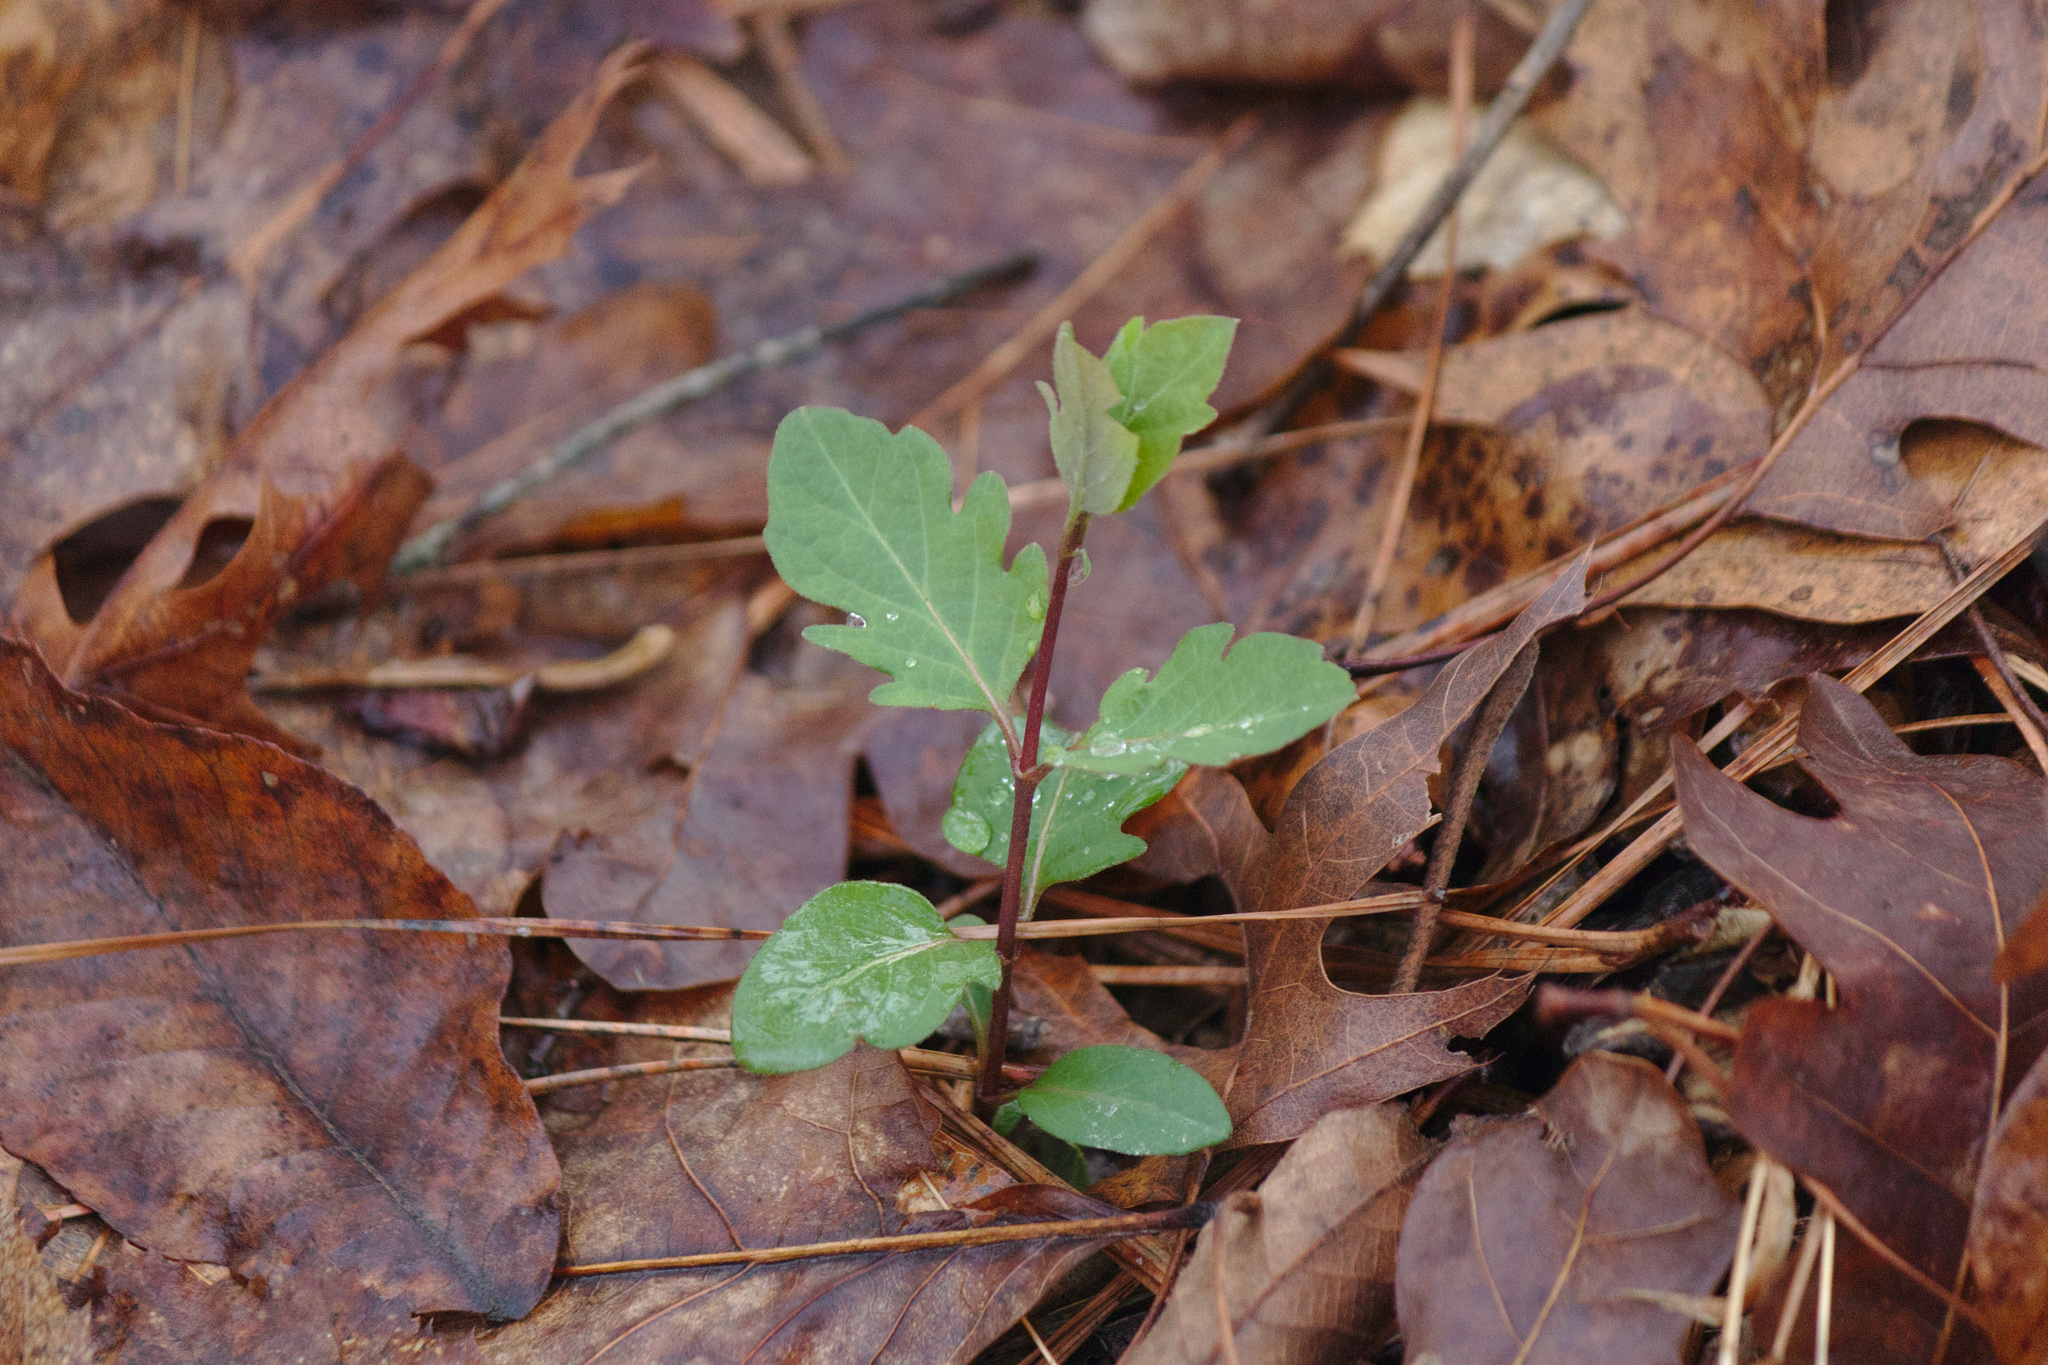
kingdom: Plantae
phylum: Tracheophyta
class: Magnoliopsida
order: Dipsacales
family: Caprifoliaceae
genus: Lonicera
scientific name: Lonicera japonica
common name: Japanese honeysuckle
